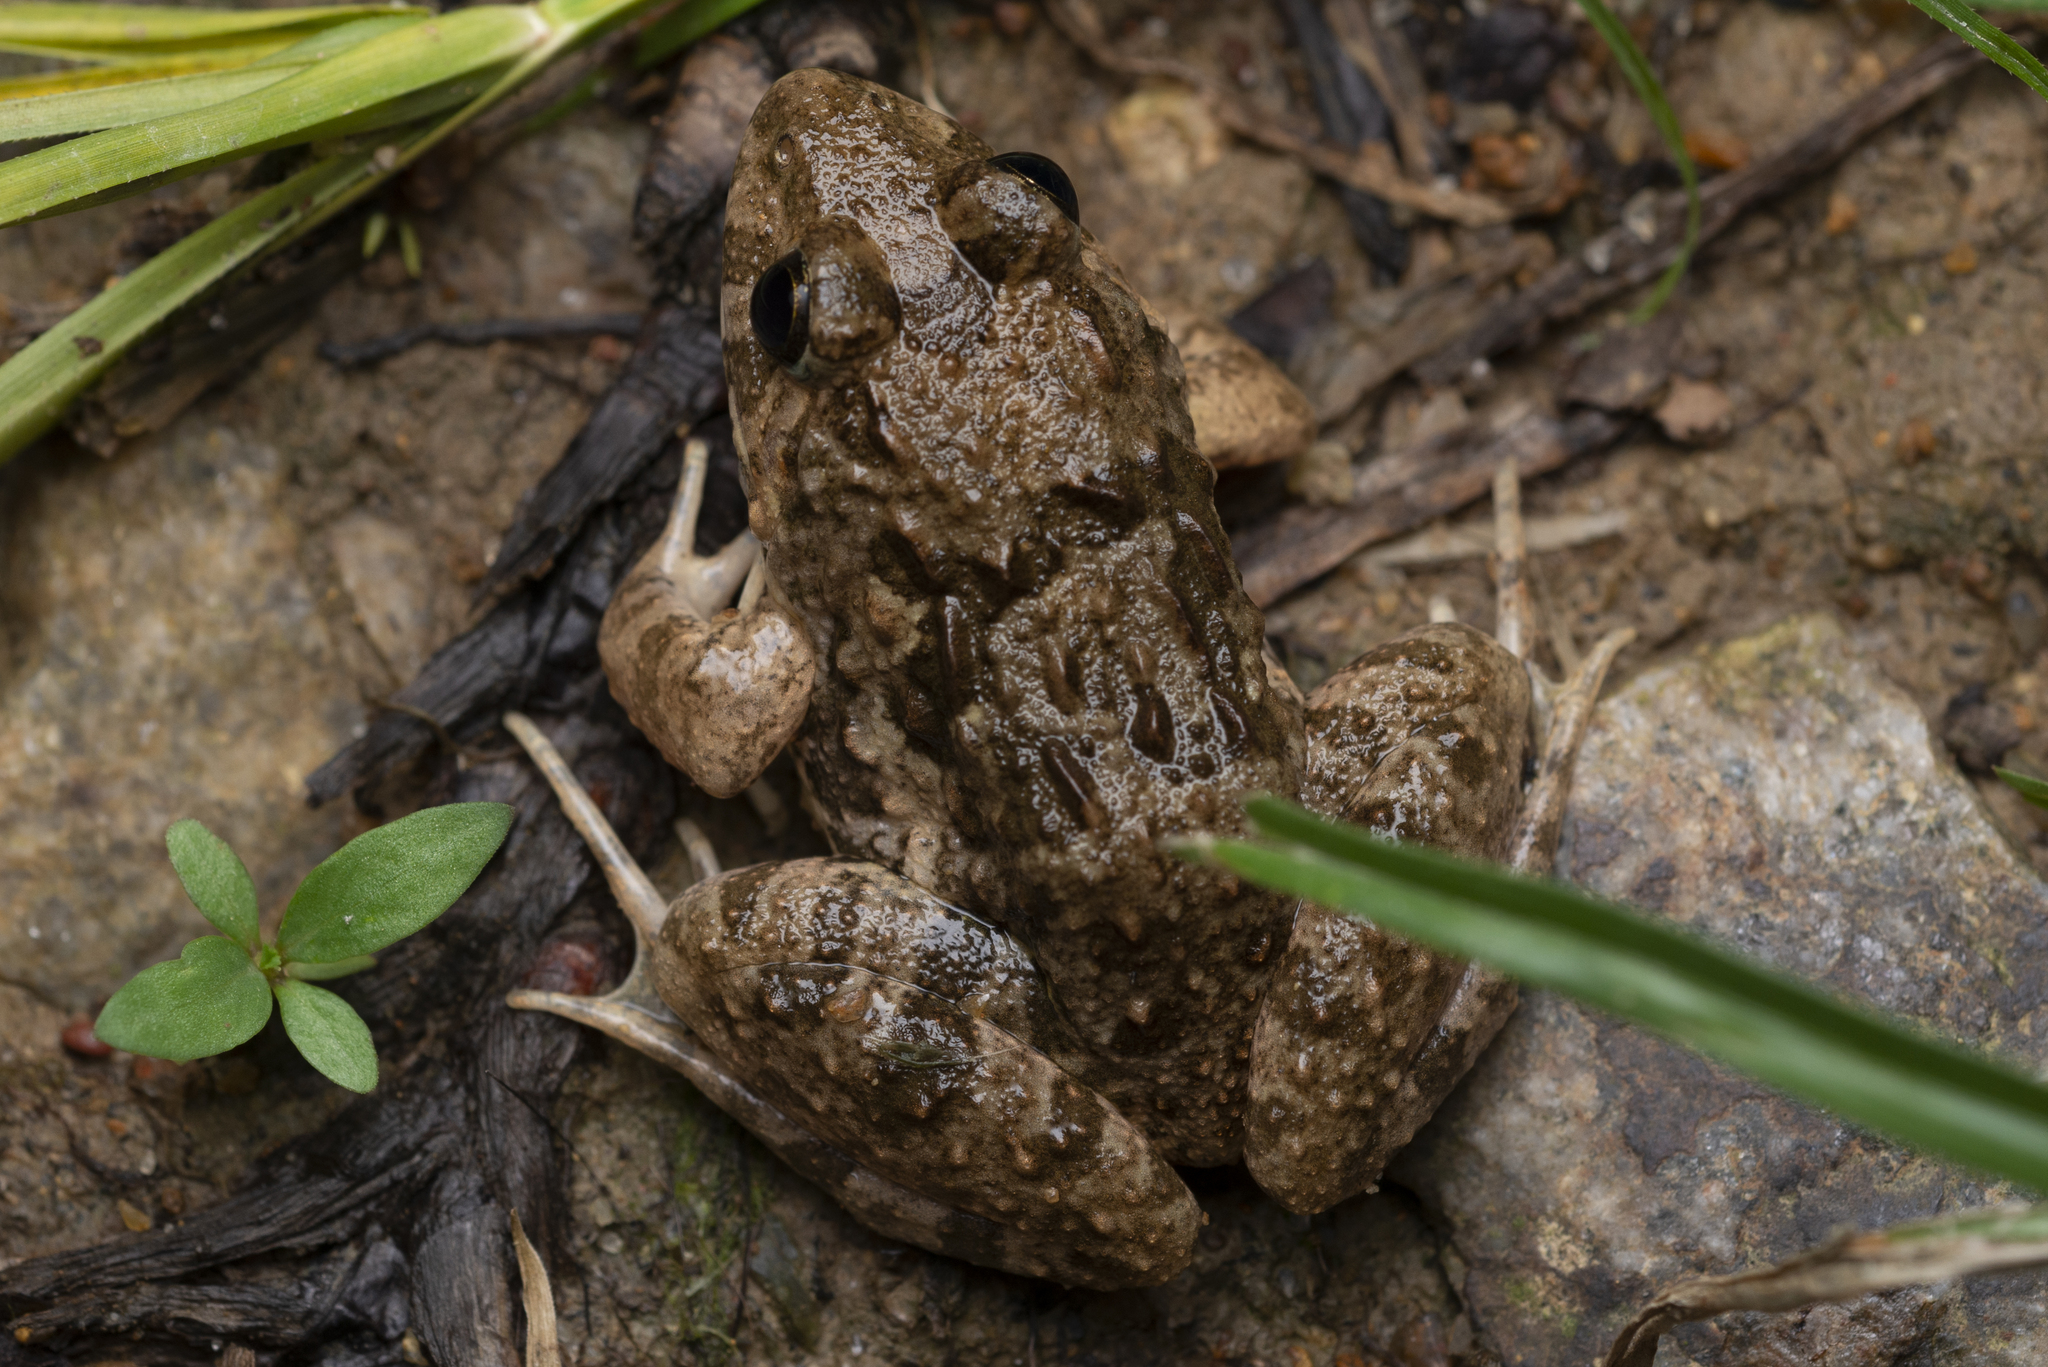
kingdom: Animalia
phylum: Chordata
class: Amphibia
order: Anura
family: Dicroglossidae
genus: Fejervarya
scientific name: Fejervarya multistriata
